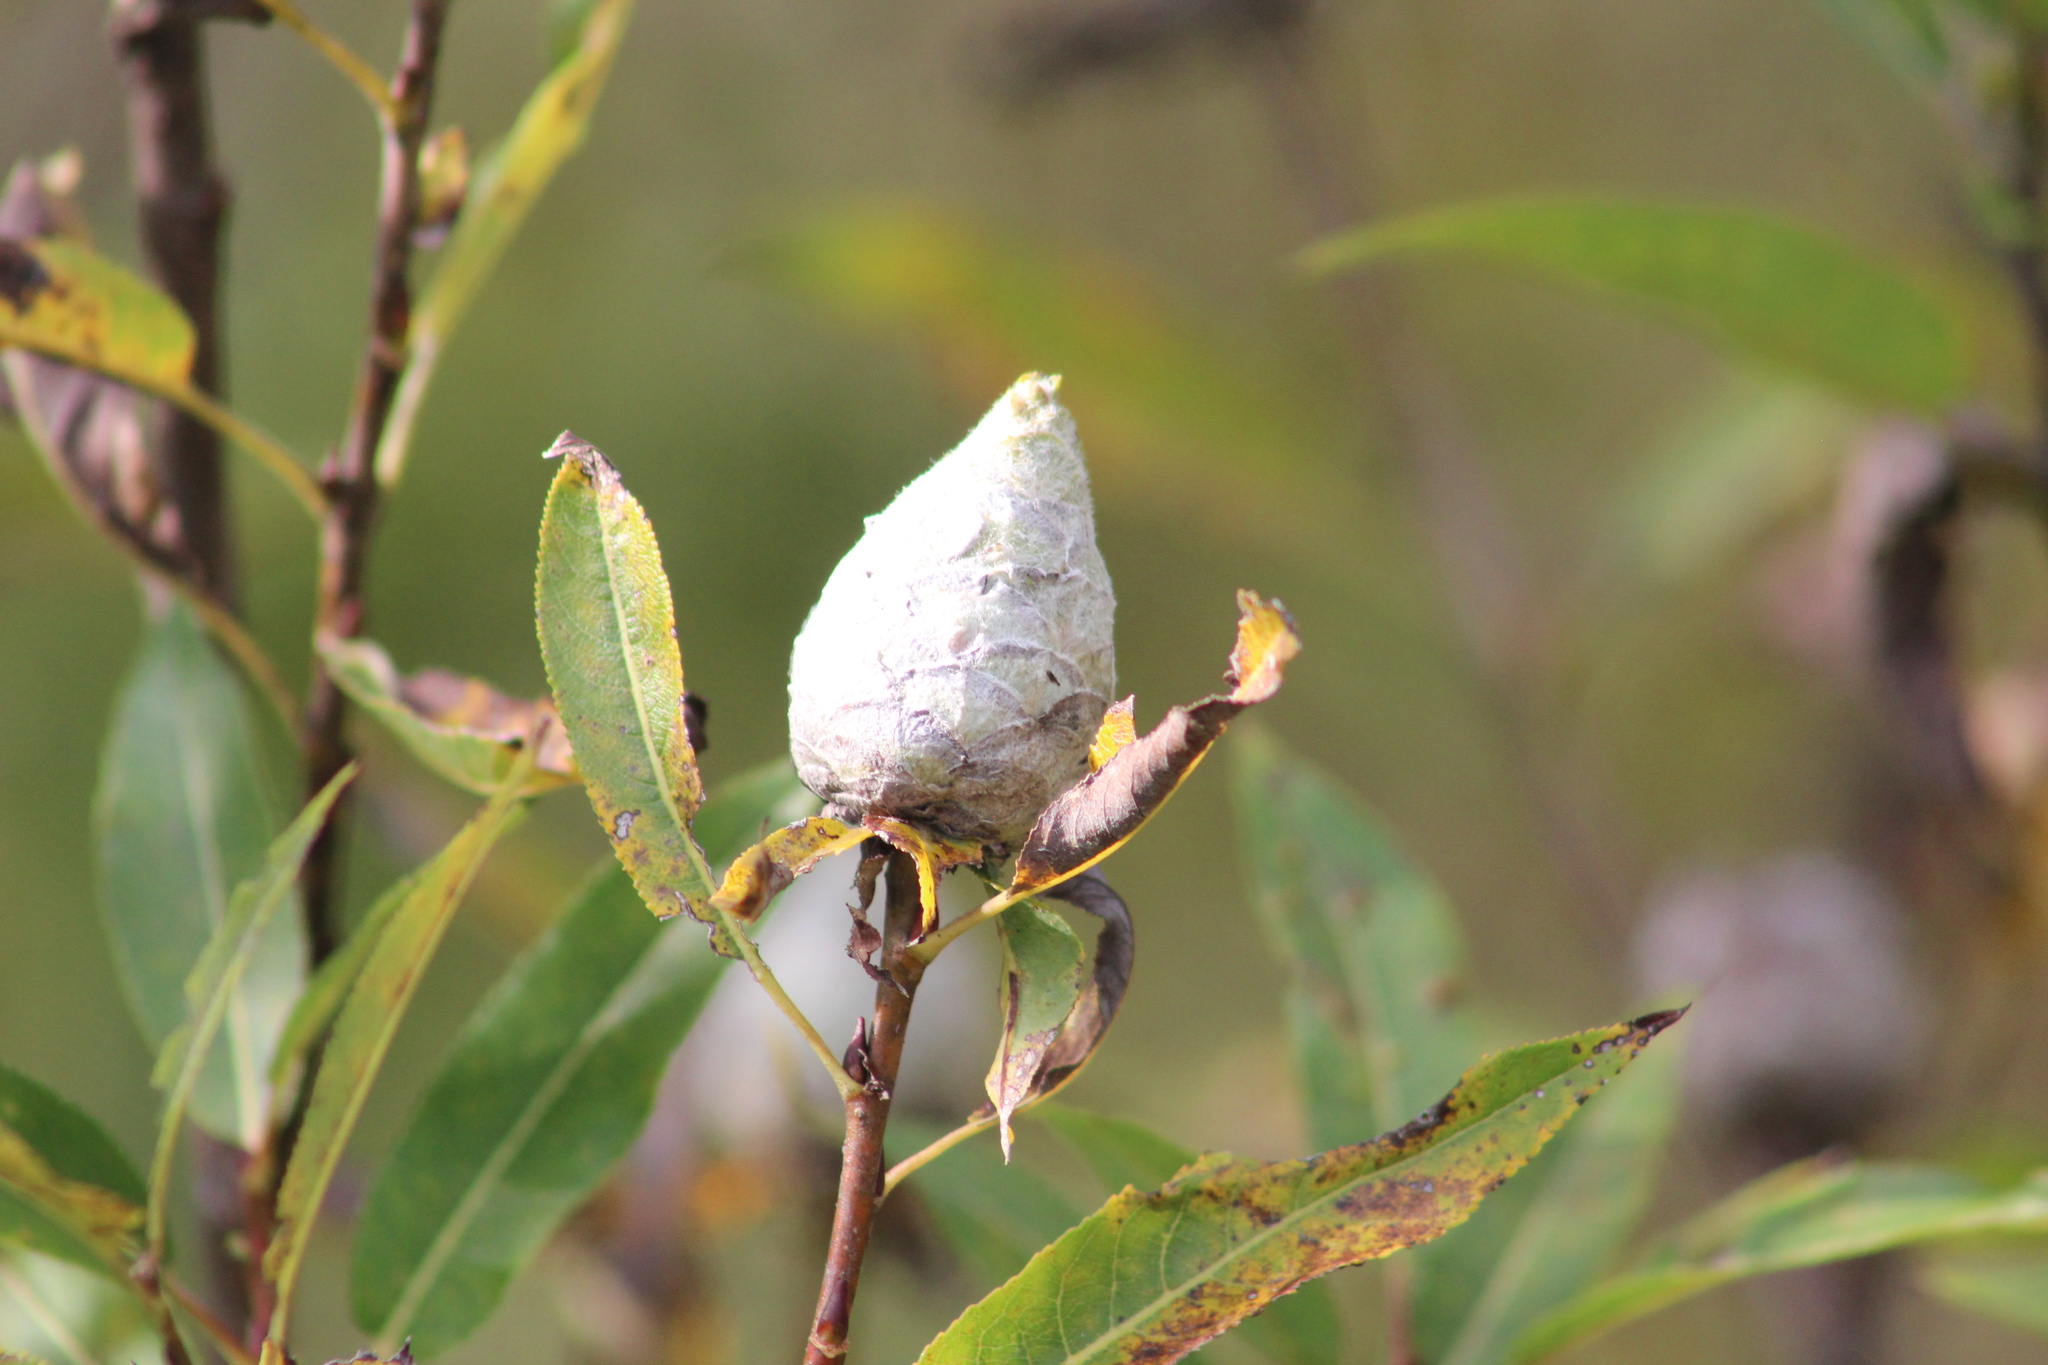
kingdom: Animalia
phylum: Arthropoda
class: Insecta
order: Diptera
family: Cecidomyiidae
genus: Rabdophaga
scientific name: Rabdophaga strobiloides
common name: Willow pinecone gall midge
